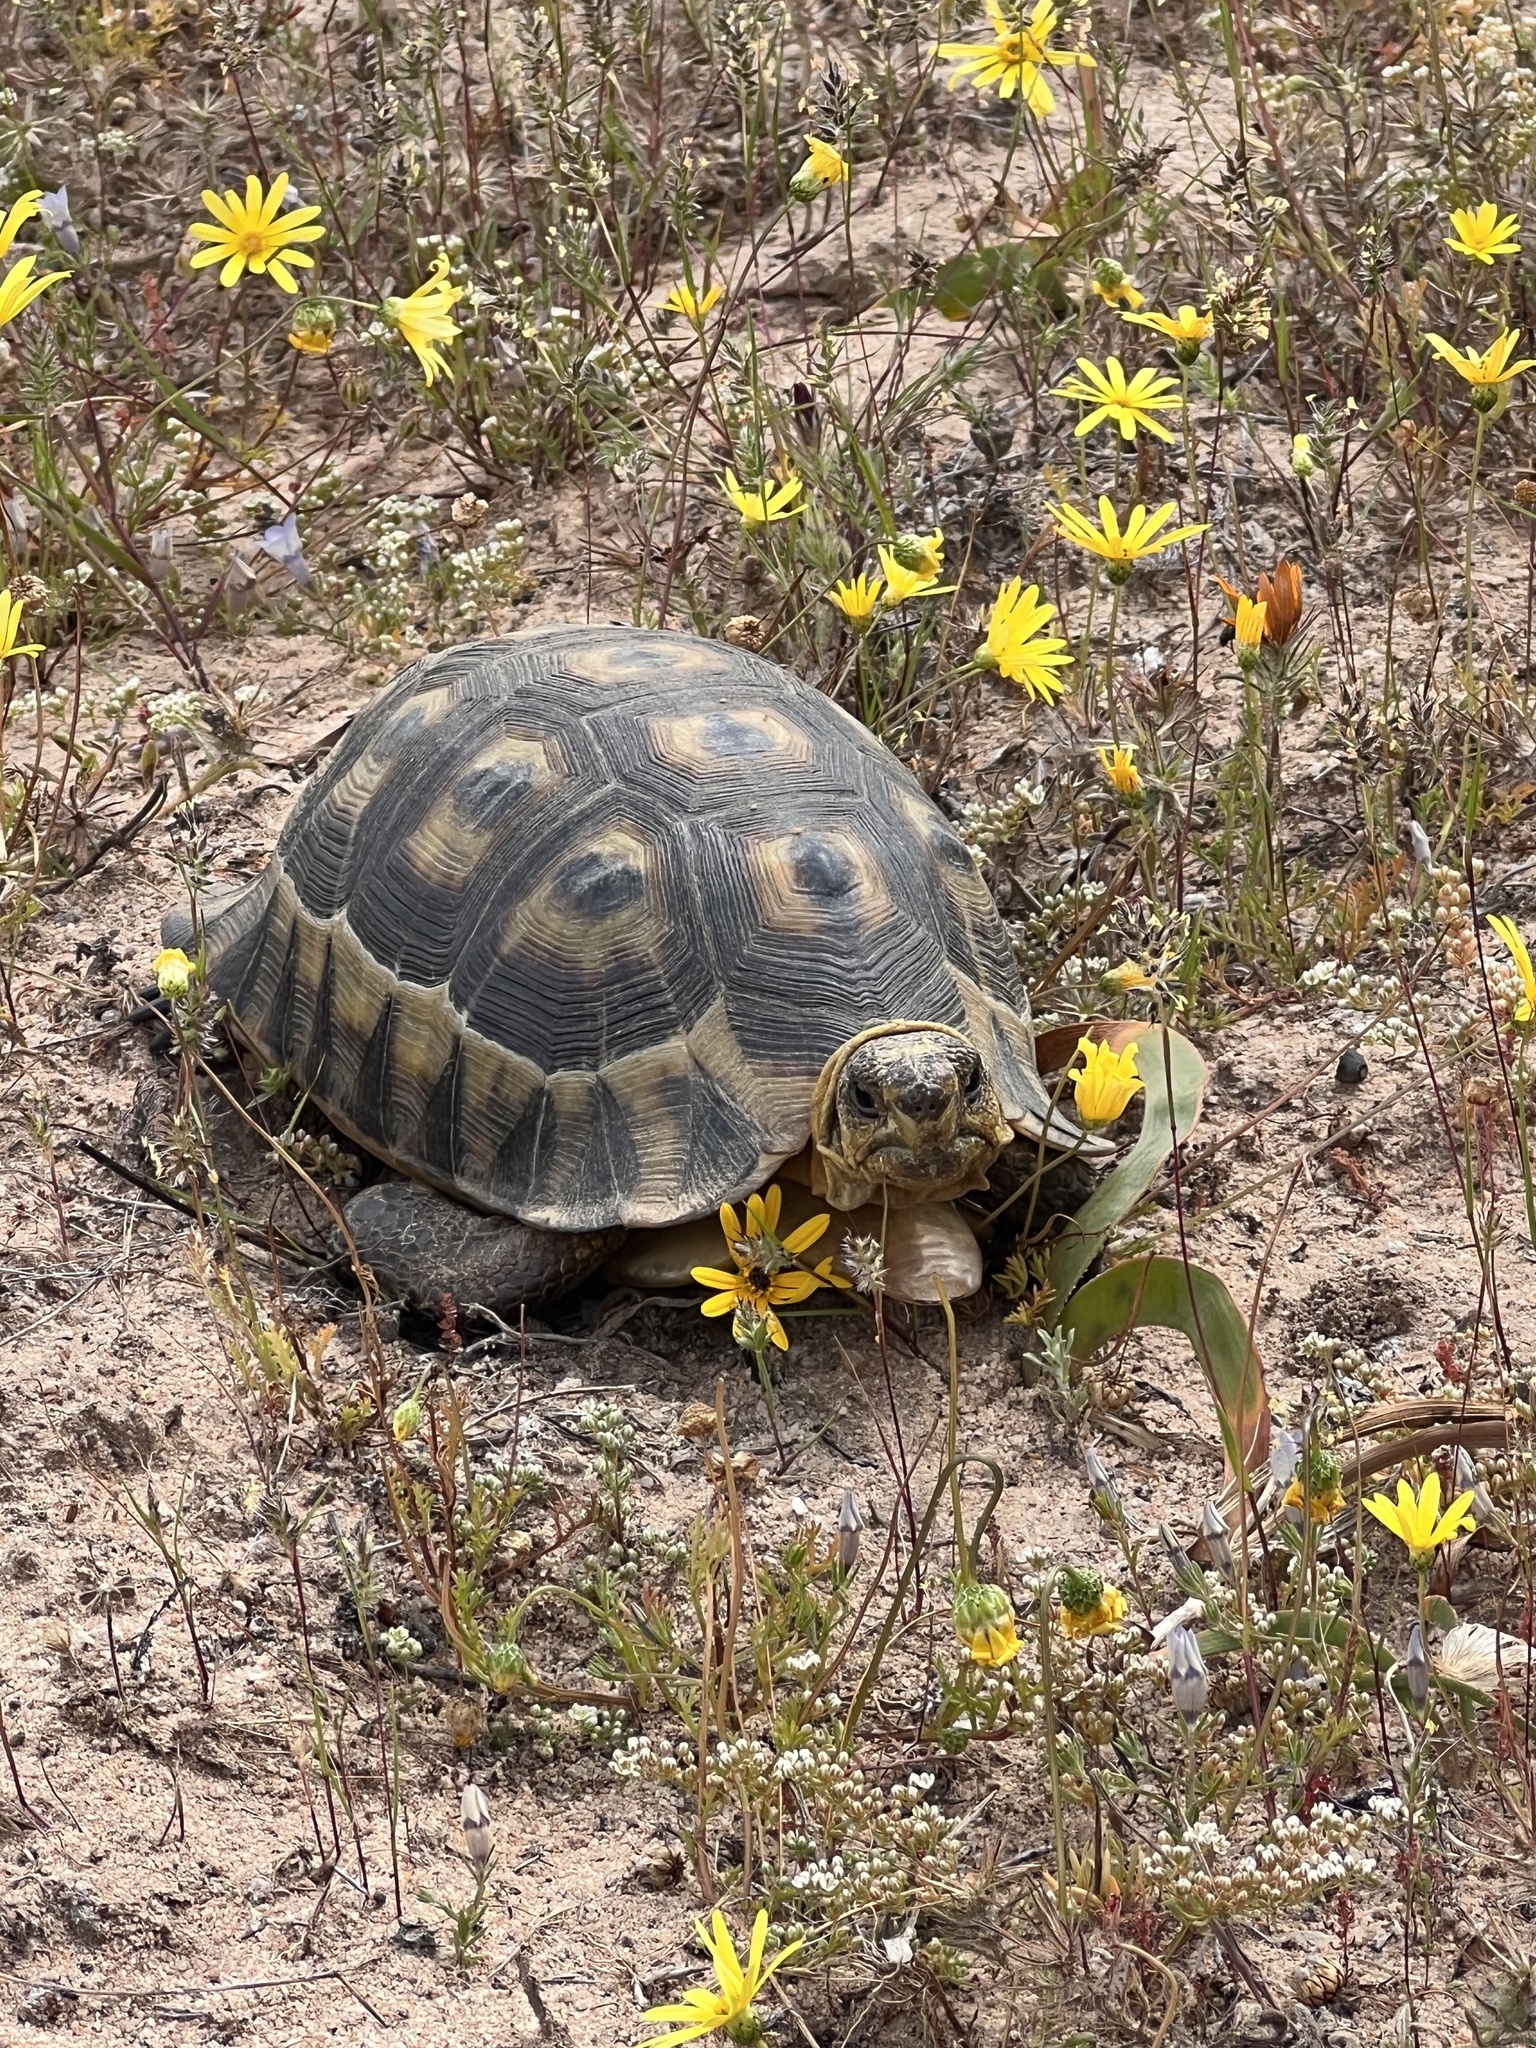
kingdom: Animalia
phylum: Chordata
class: Testudines
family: Testudinidae
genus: Chersina
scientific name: Chersina angulata
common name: South african bowsprit tortoise
